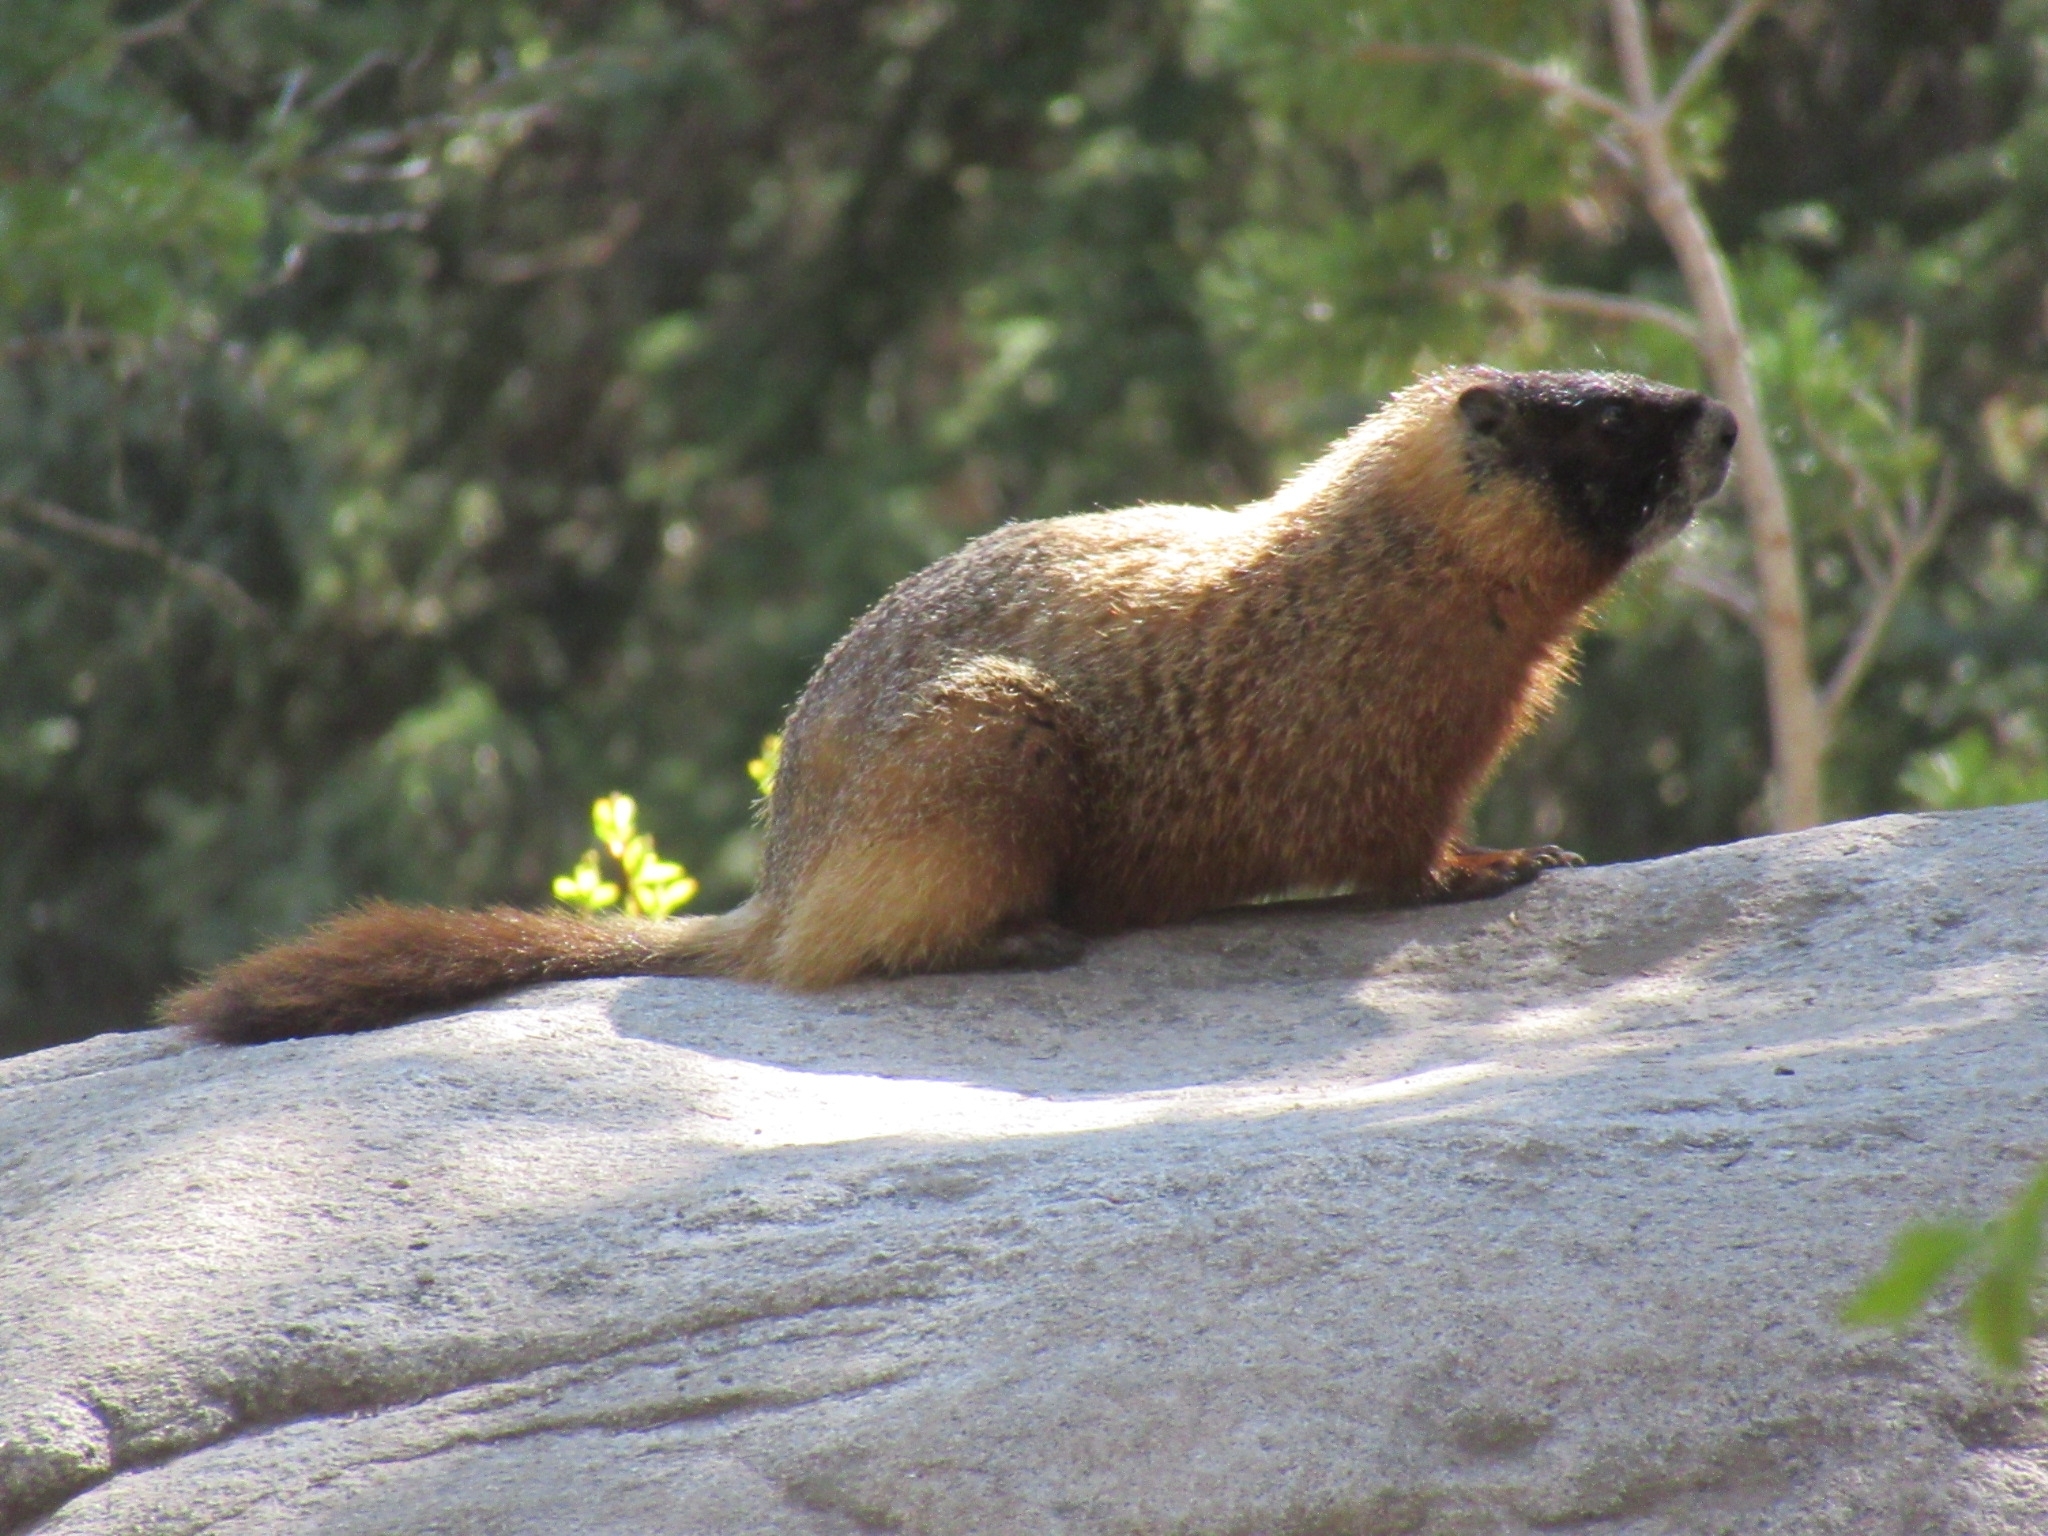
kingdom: Animalia
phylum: Chordata
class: Mammalia
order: Rodentia
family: Sciuridae
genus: Marmota
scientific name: Marmota flaviventris
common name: Yellow-bellied marmot
